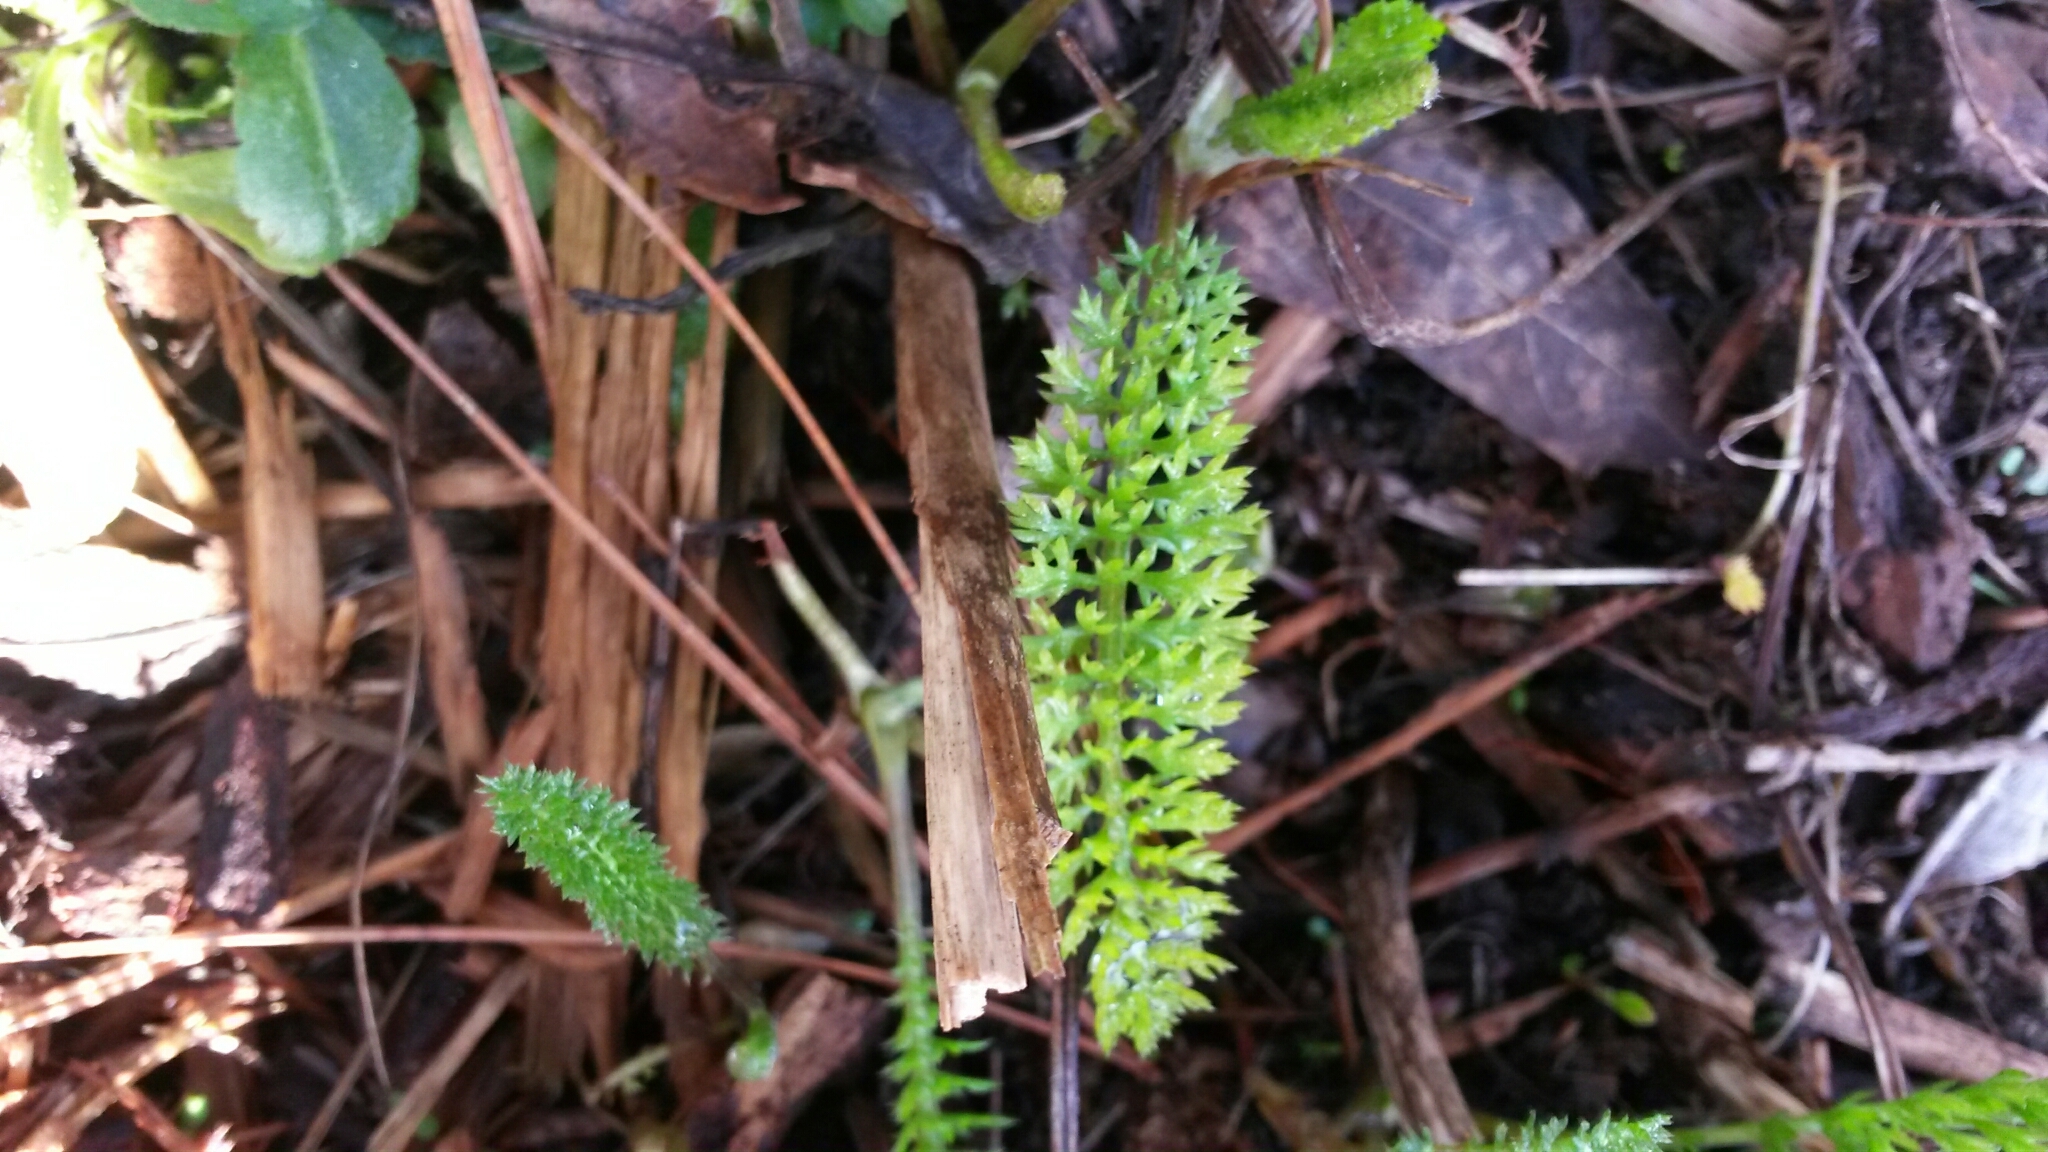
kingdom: Plantae
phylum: Tracheophyta
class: Magnoliopsida
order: Asterales
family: Asteraceae
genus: Achillea
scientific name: Achillea millefolium
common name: Yarrow
